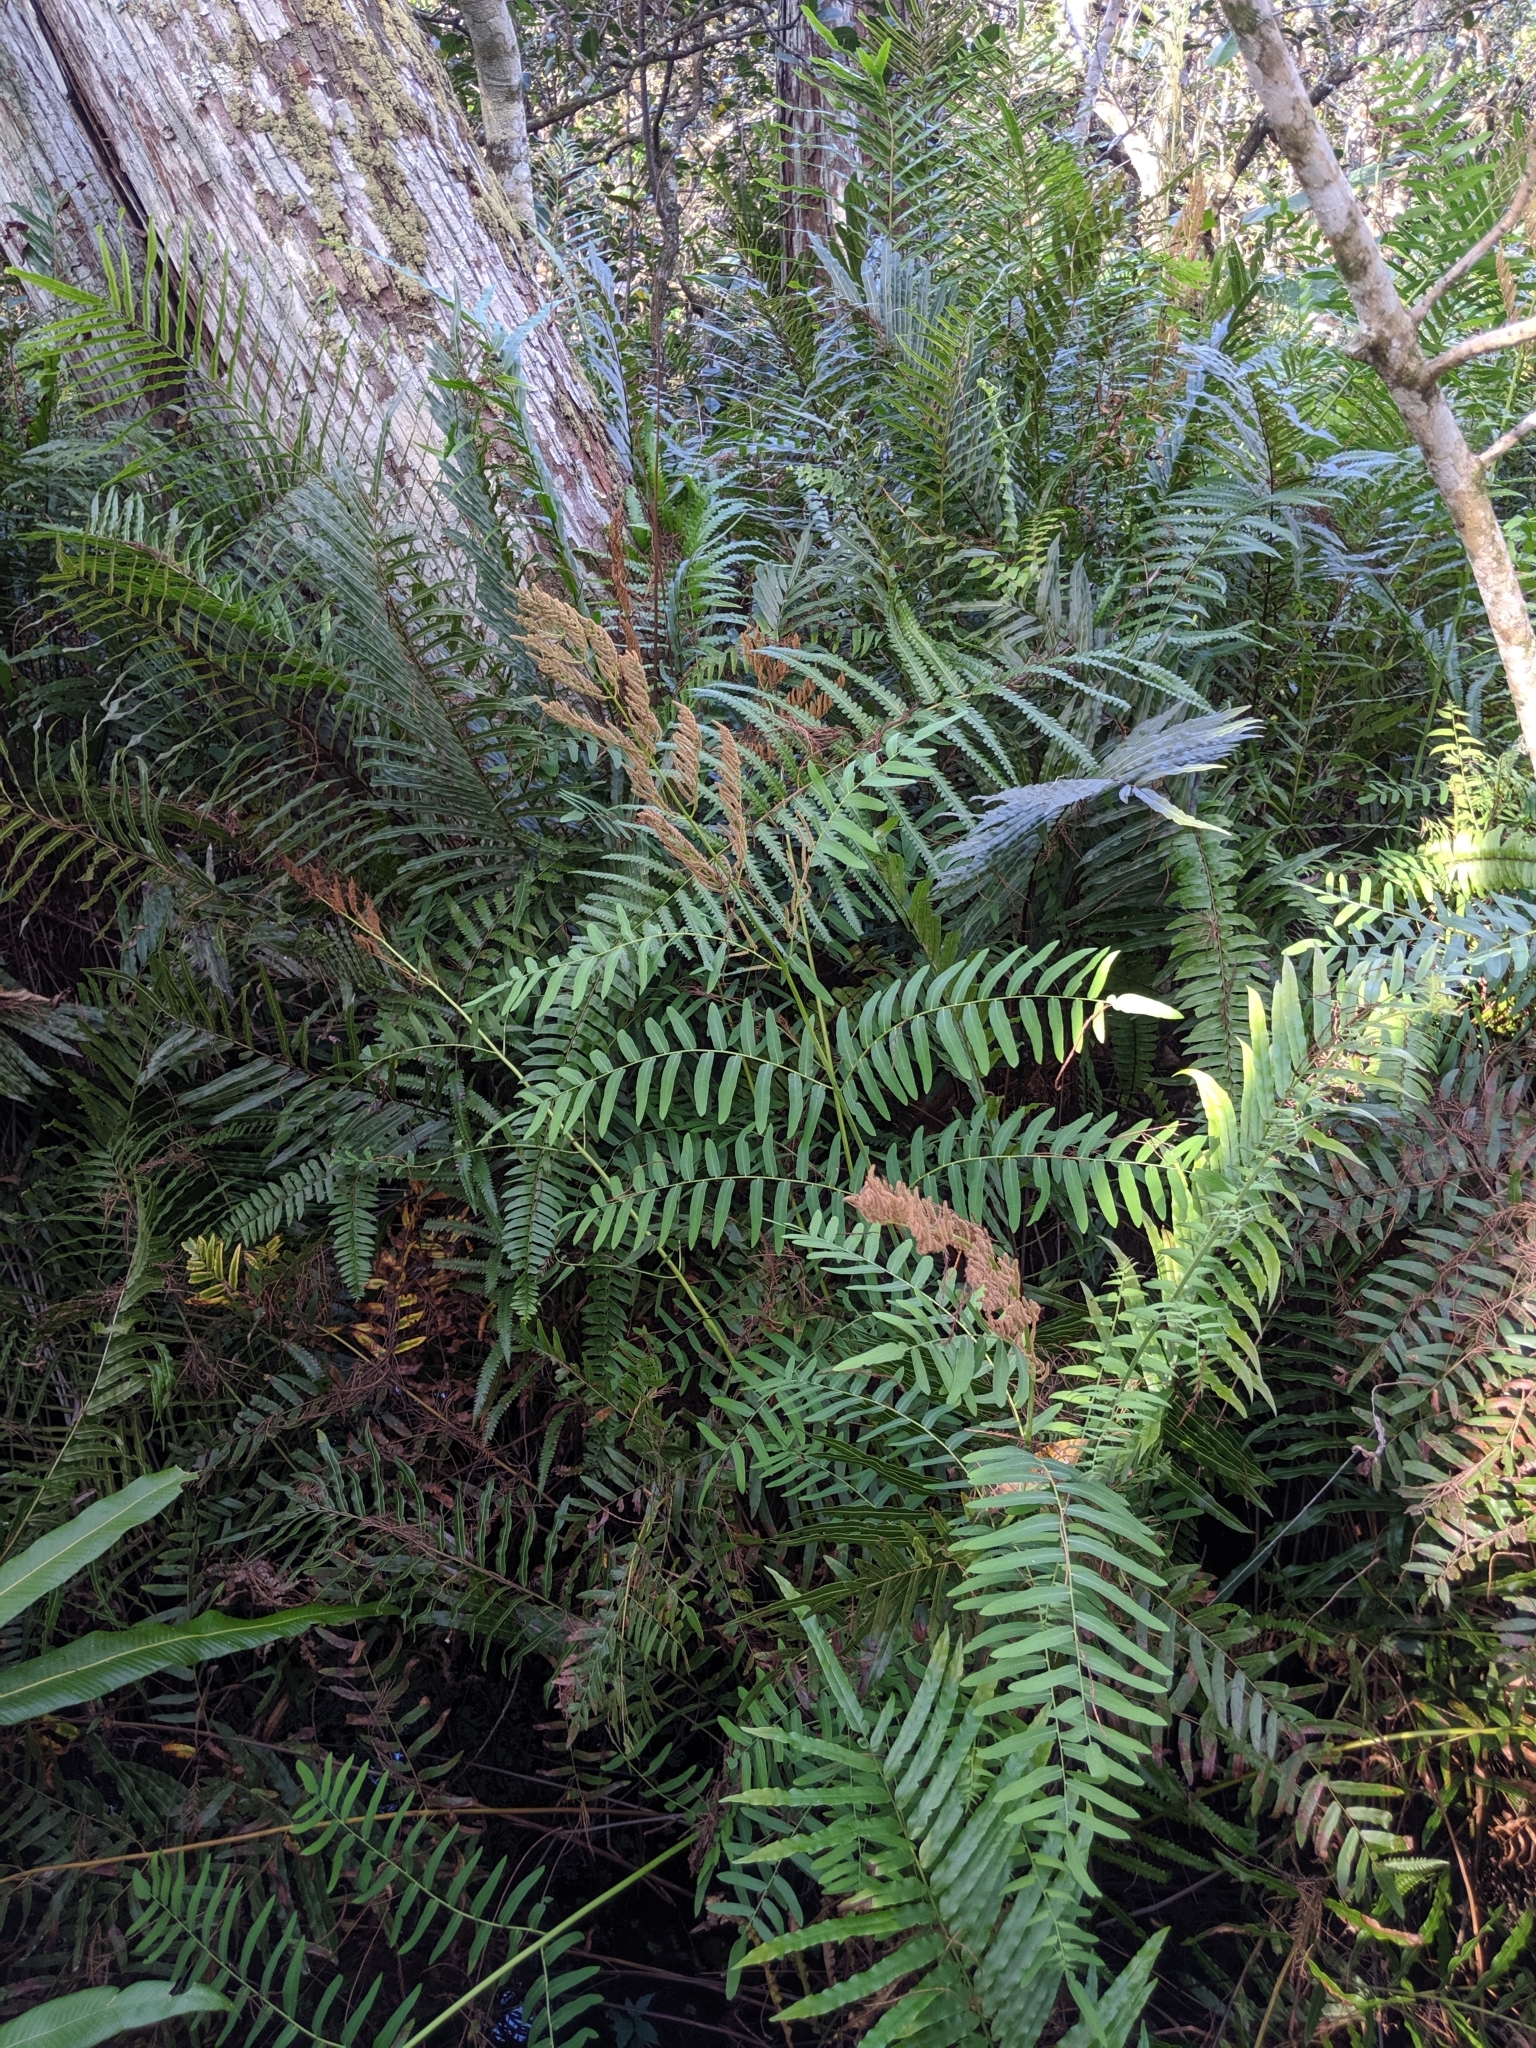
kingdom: Plantae
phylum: Tracheophyta
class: Polypodiopsida
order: Osmundales
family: Osmundaceae
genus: Osmunda
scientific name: Osmunda spectabilis
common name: American royal fern
